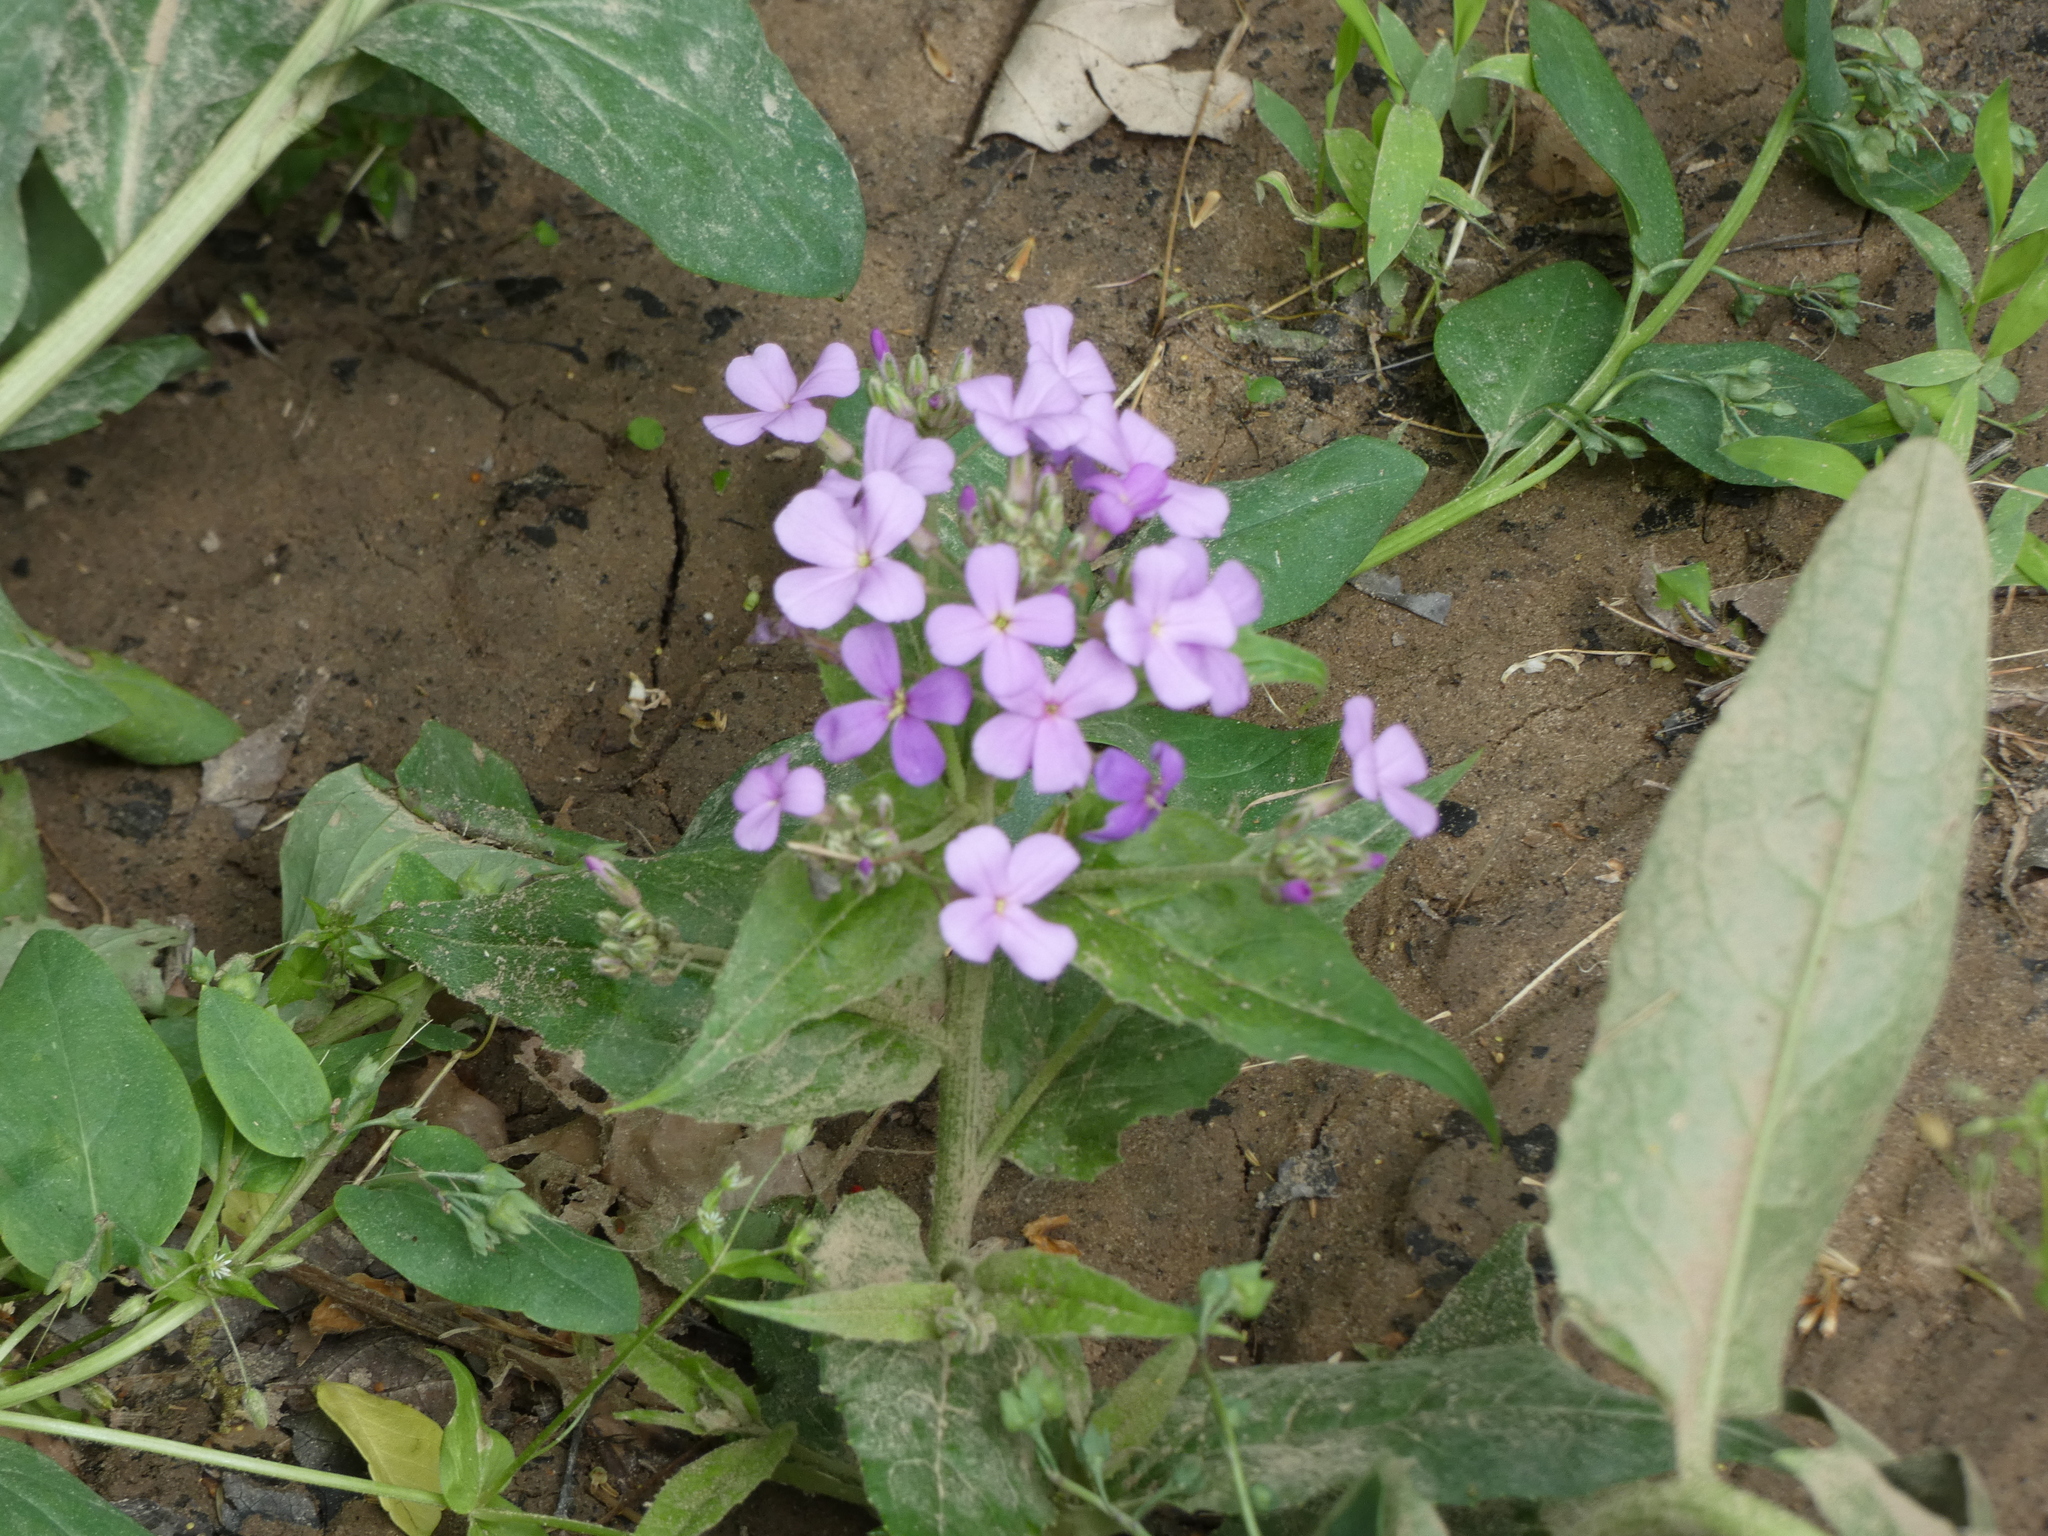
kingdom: Plantae
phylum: Tracheophyta
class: Magnoliopsida
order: Brassicales
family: Brassicaceae
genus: Hesperis
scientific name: Hesperis matronalis
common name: Dame's-violet
